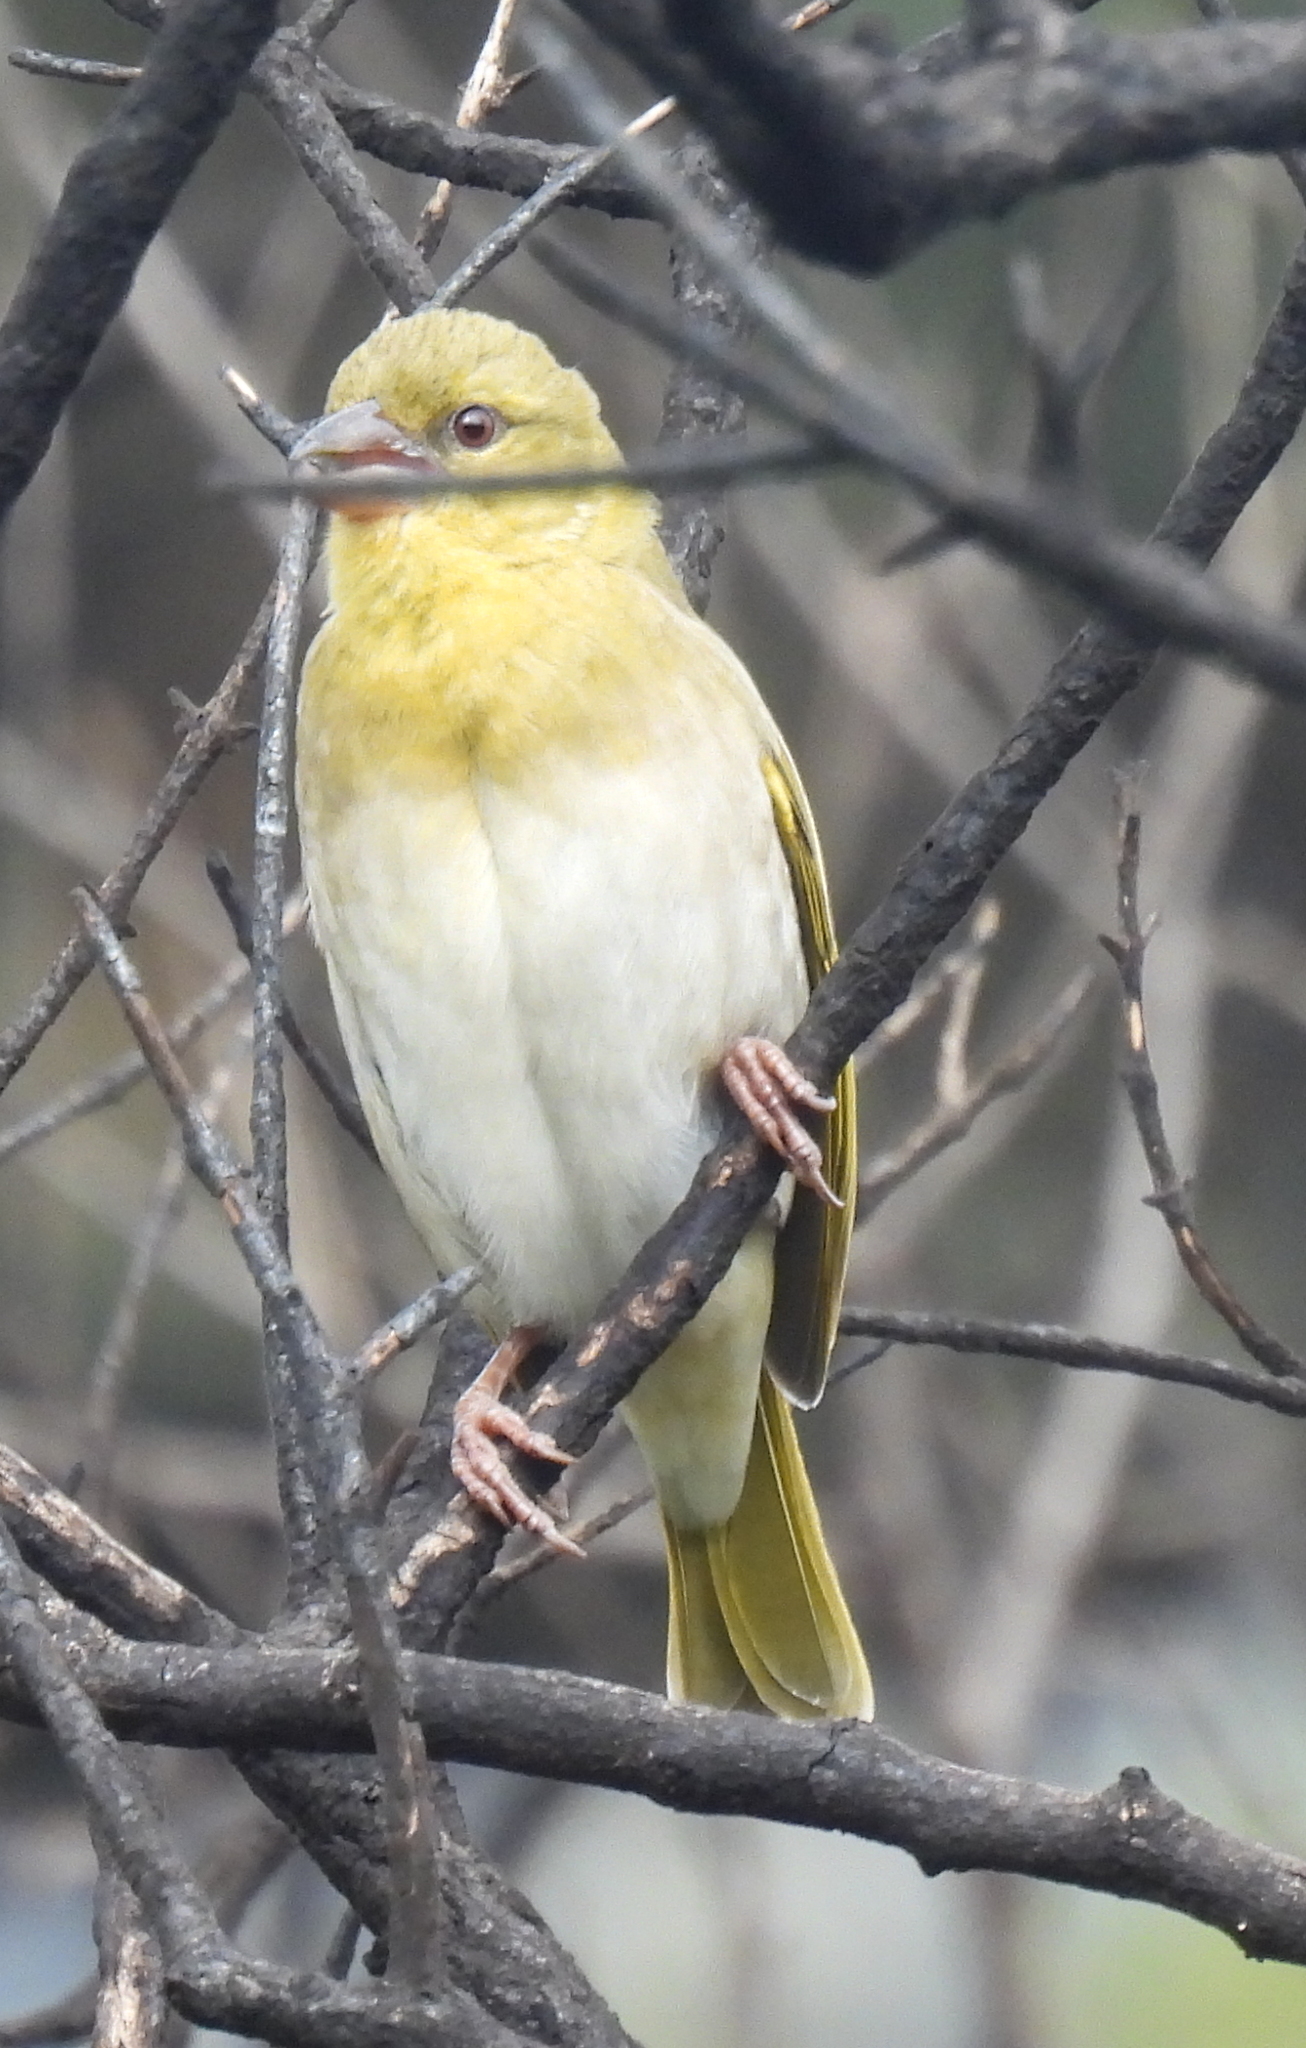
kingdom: Animalia
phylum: Chordata
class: Aves
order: Passeriformes
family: Ploceidae
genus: Ploceus
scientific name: Ploceus velatus
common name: Southern masked weaver
